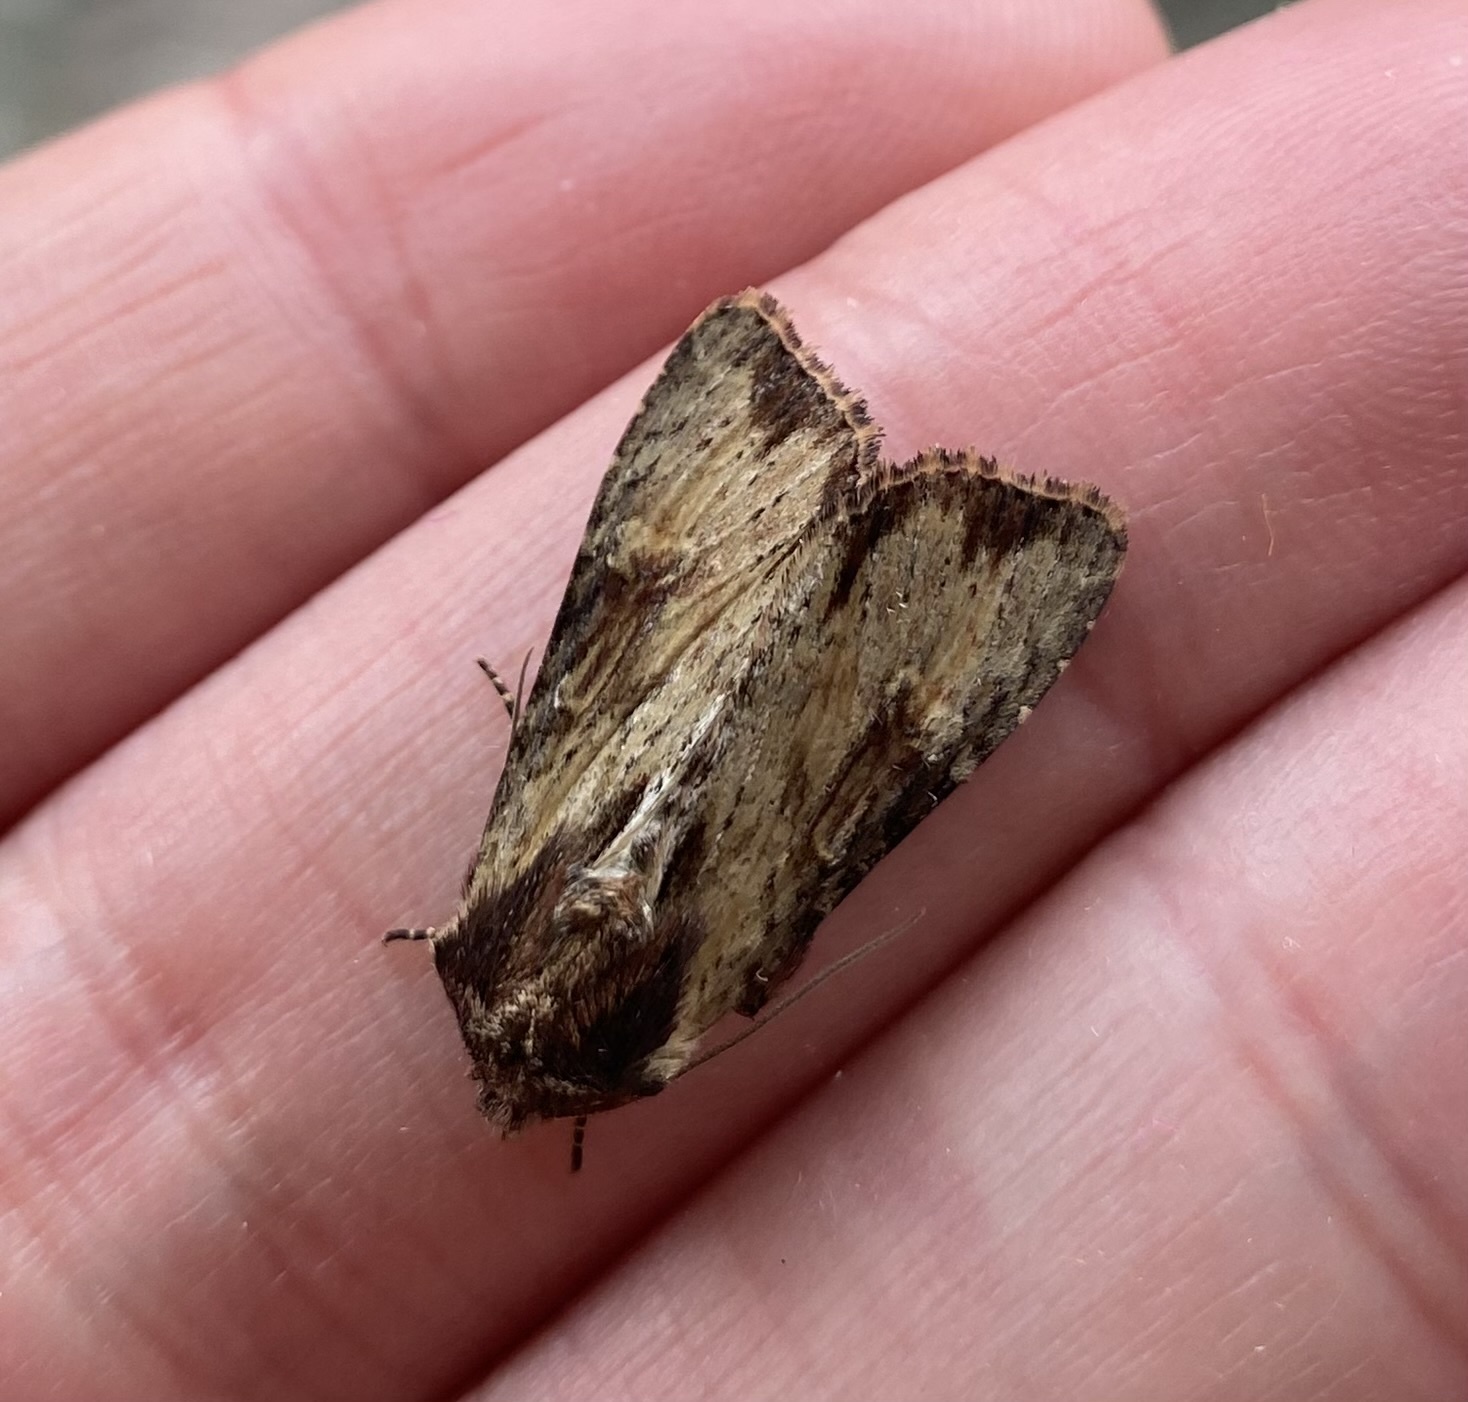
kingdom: Animalia
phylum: Arthropoda
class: Insecta
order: Lepidoptera
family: Noctuidae
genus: Apamea
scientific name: Apamea crenata
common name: Clouded-bordered brindle
